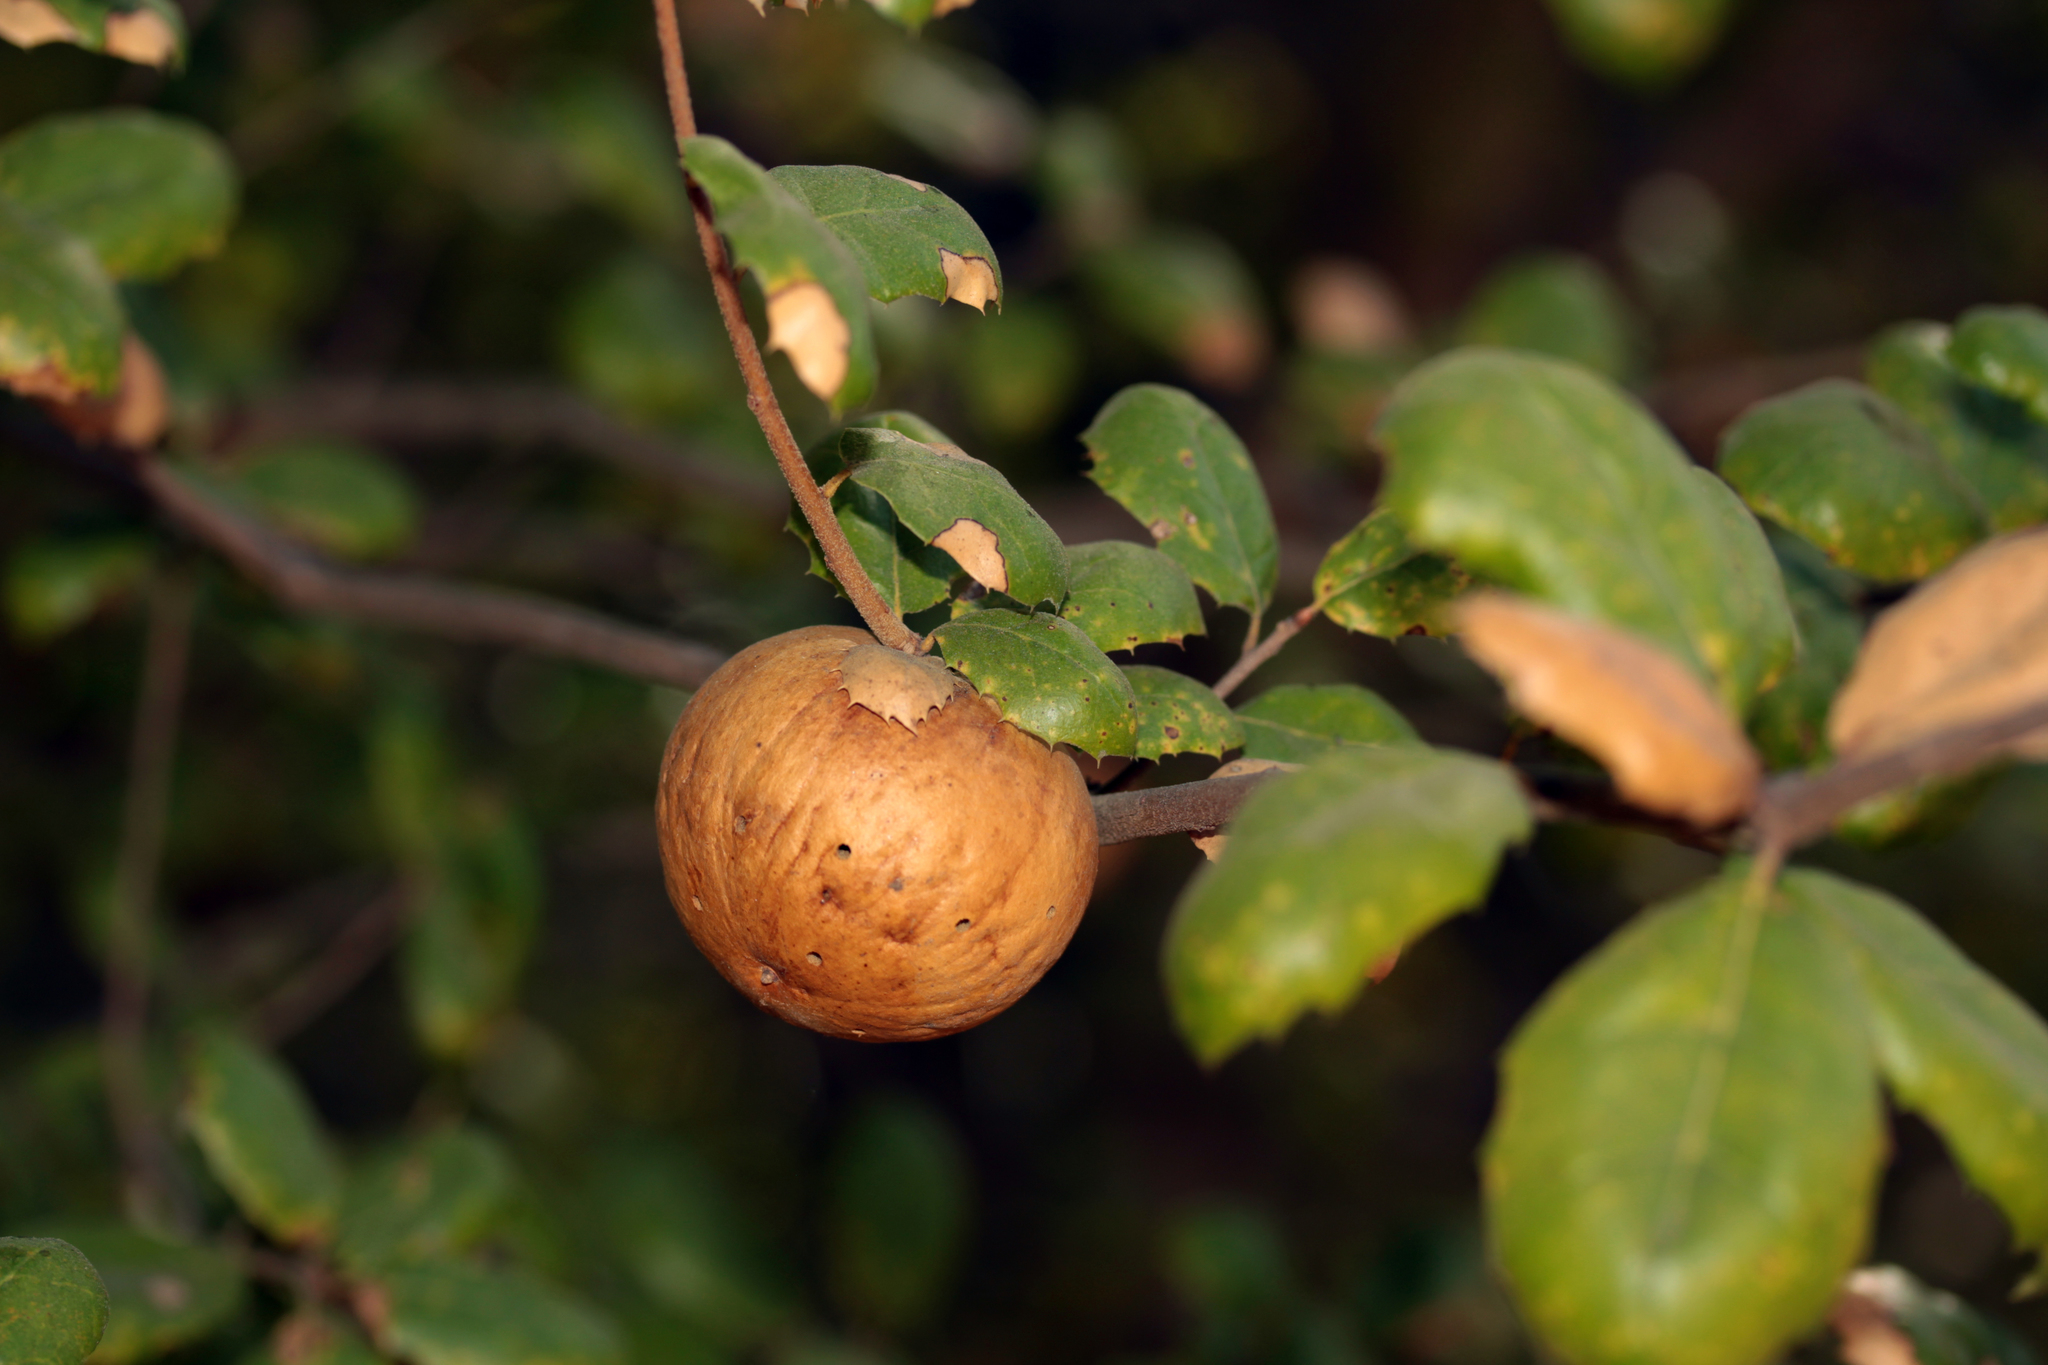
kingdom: Animalia
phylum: Arthropoda
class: Insecta
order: Hymenoptera
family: Cynipidae
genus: Amphibolips
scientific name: Amphibolips quercuspomiformis
